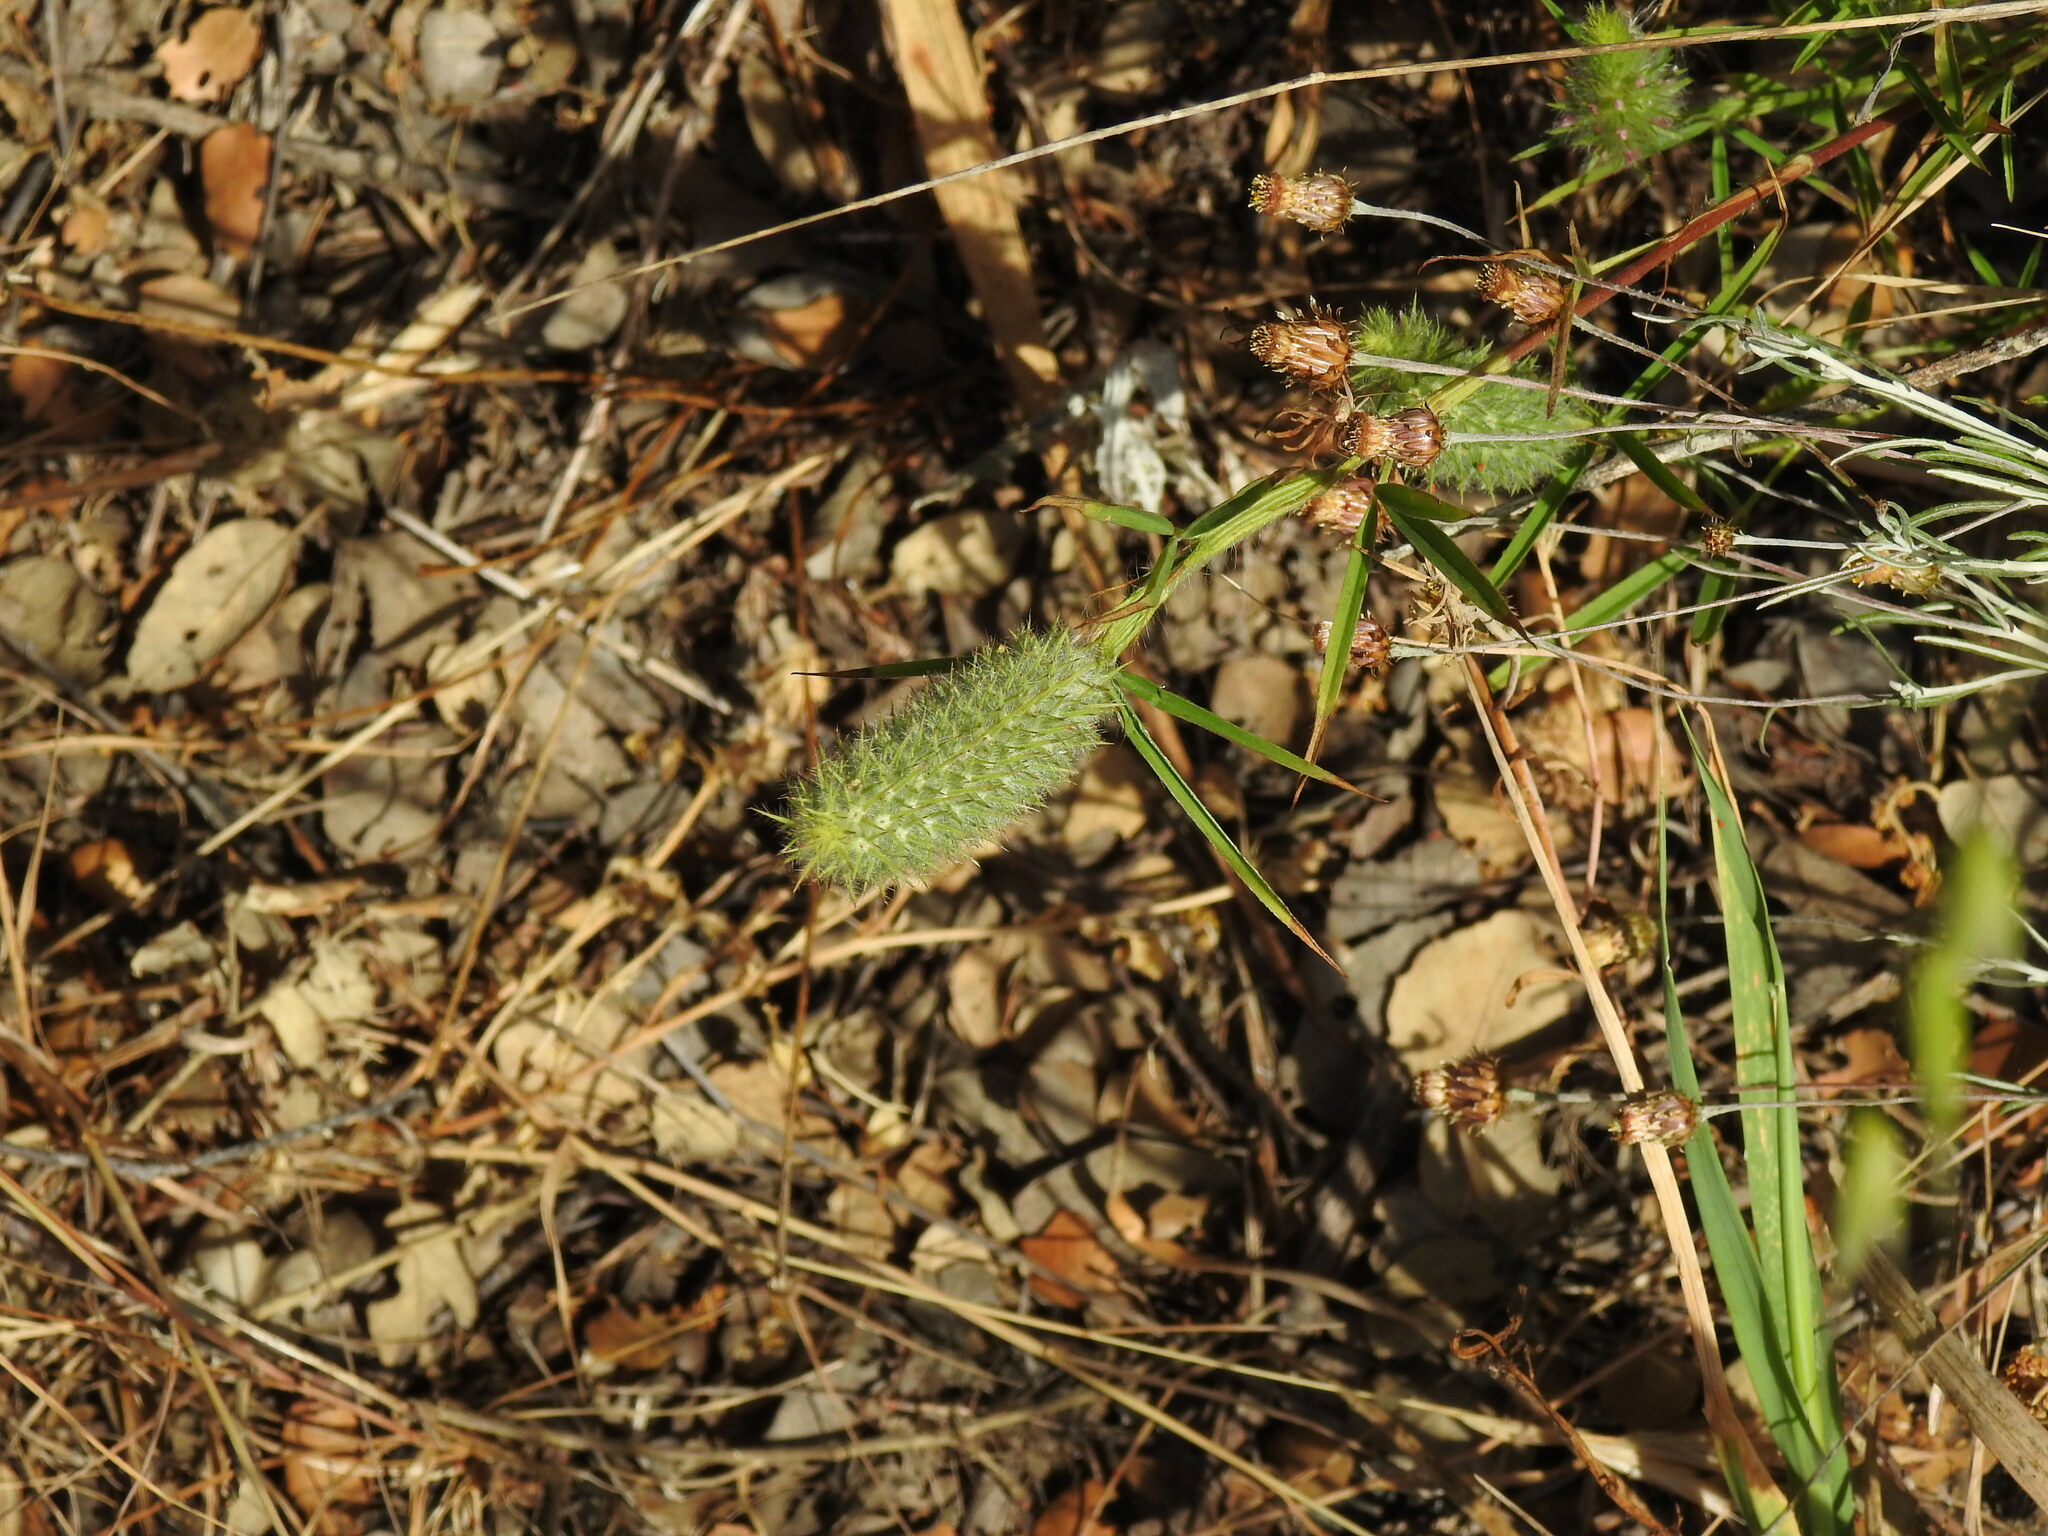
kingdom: Plantae
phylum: Tracheophyta
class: Magnoliopsida
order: Fabales
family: Fabaceae
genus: Trifolium
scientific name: Trifolium angustifolium
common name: Narrow clover
